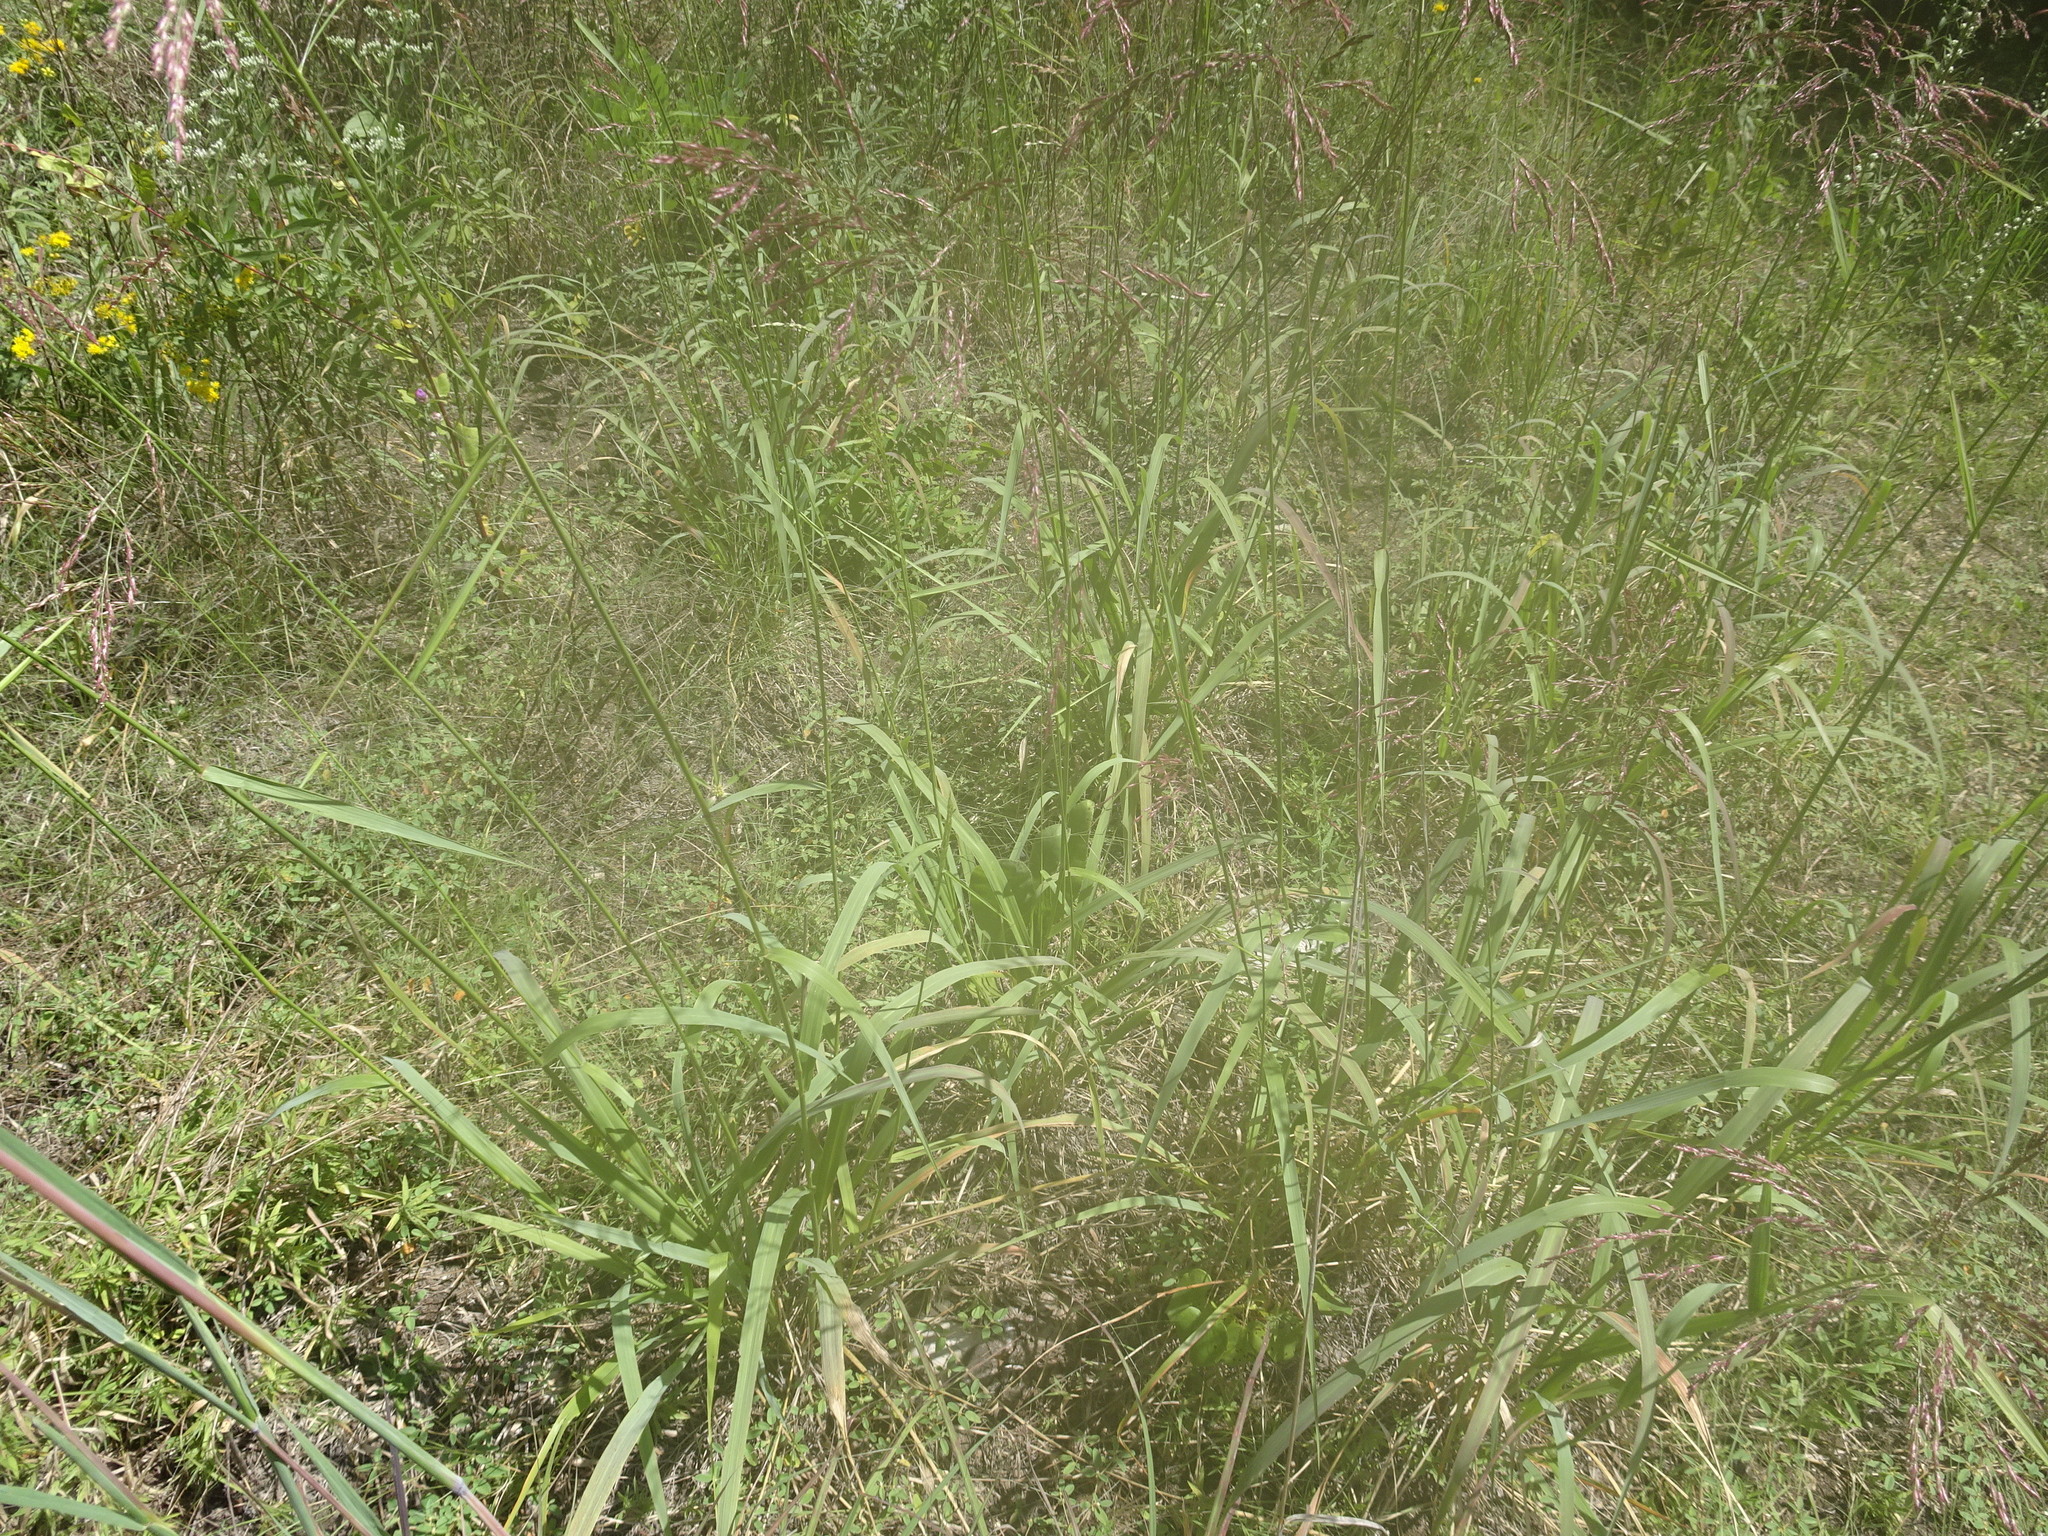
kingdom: Plantae
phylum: Tracheophyta
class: Liliopsida
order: Poales
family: Poaceae
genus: Tridens
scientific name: Tridens flavus
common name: Purpletop
